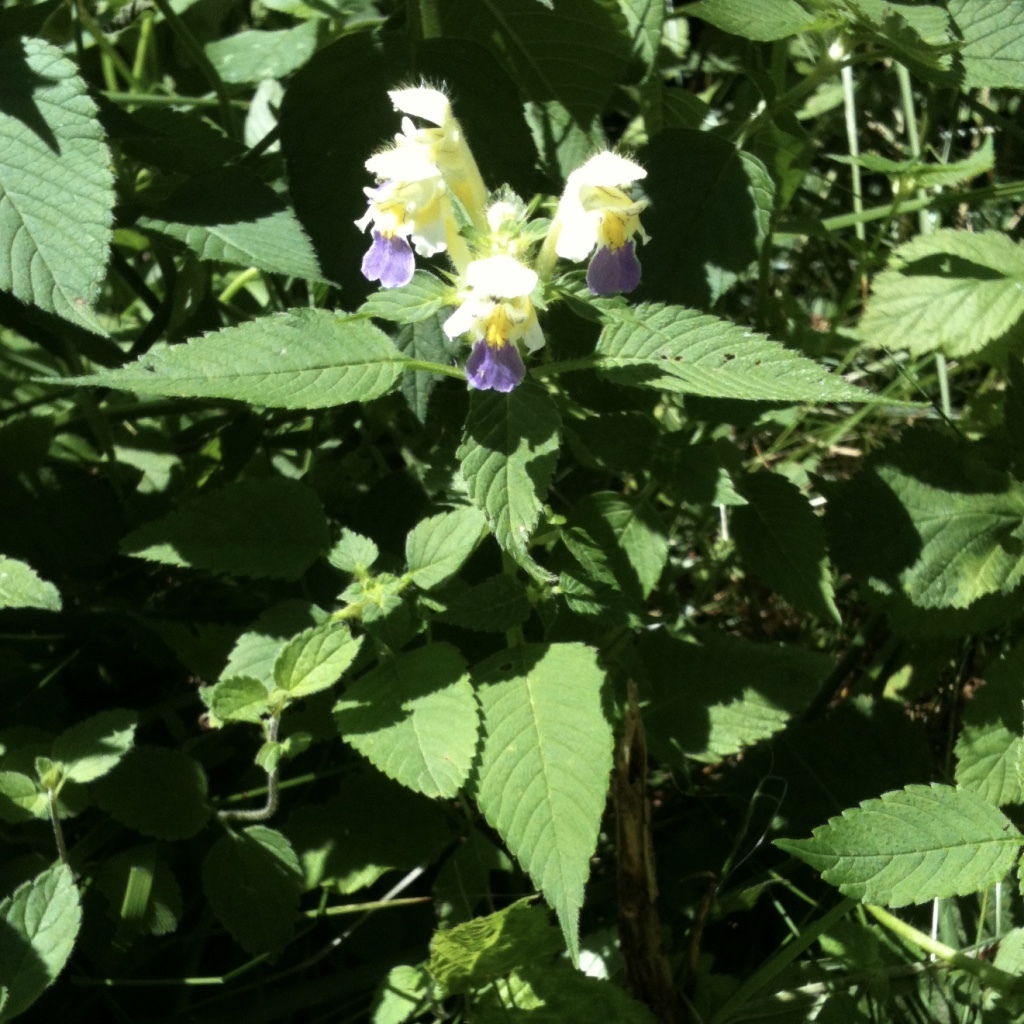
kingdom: Plantae
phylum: Tracheophyta
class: Magnoliopsida
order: Lamiales
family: Lamiaceae
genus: Galeopsis
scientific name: Galeopsis speciosa
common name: Large-flowered hemp-nettle
